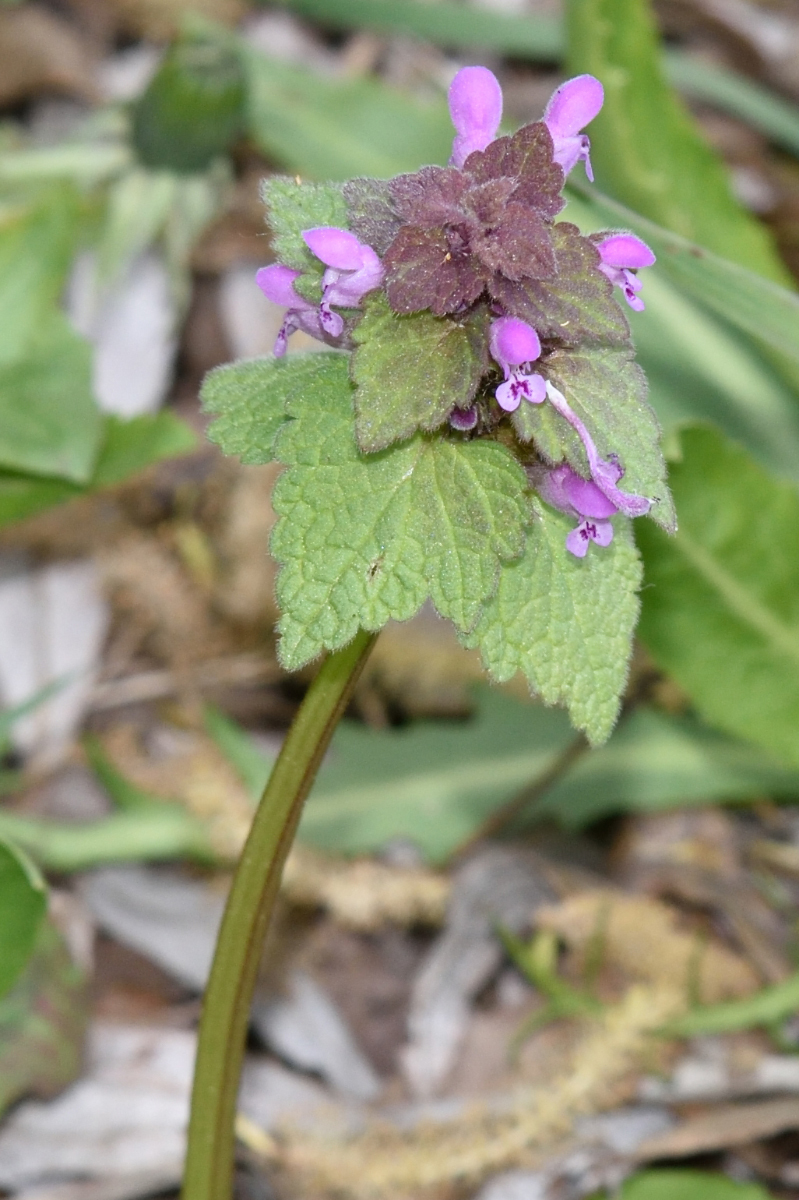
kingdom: Plantae
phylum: Tracheophyta
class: Magnoliopsida
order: Lamiales
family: Lamiaceae
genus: Lamium
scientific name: Lamium purpureum
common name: Red dead-nettle
